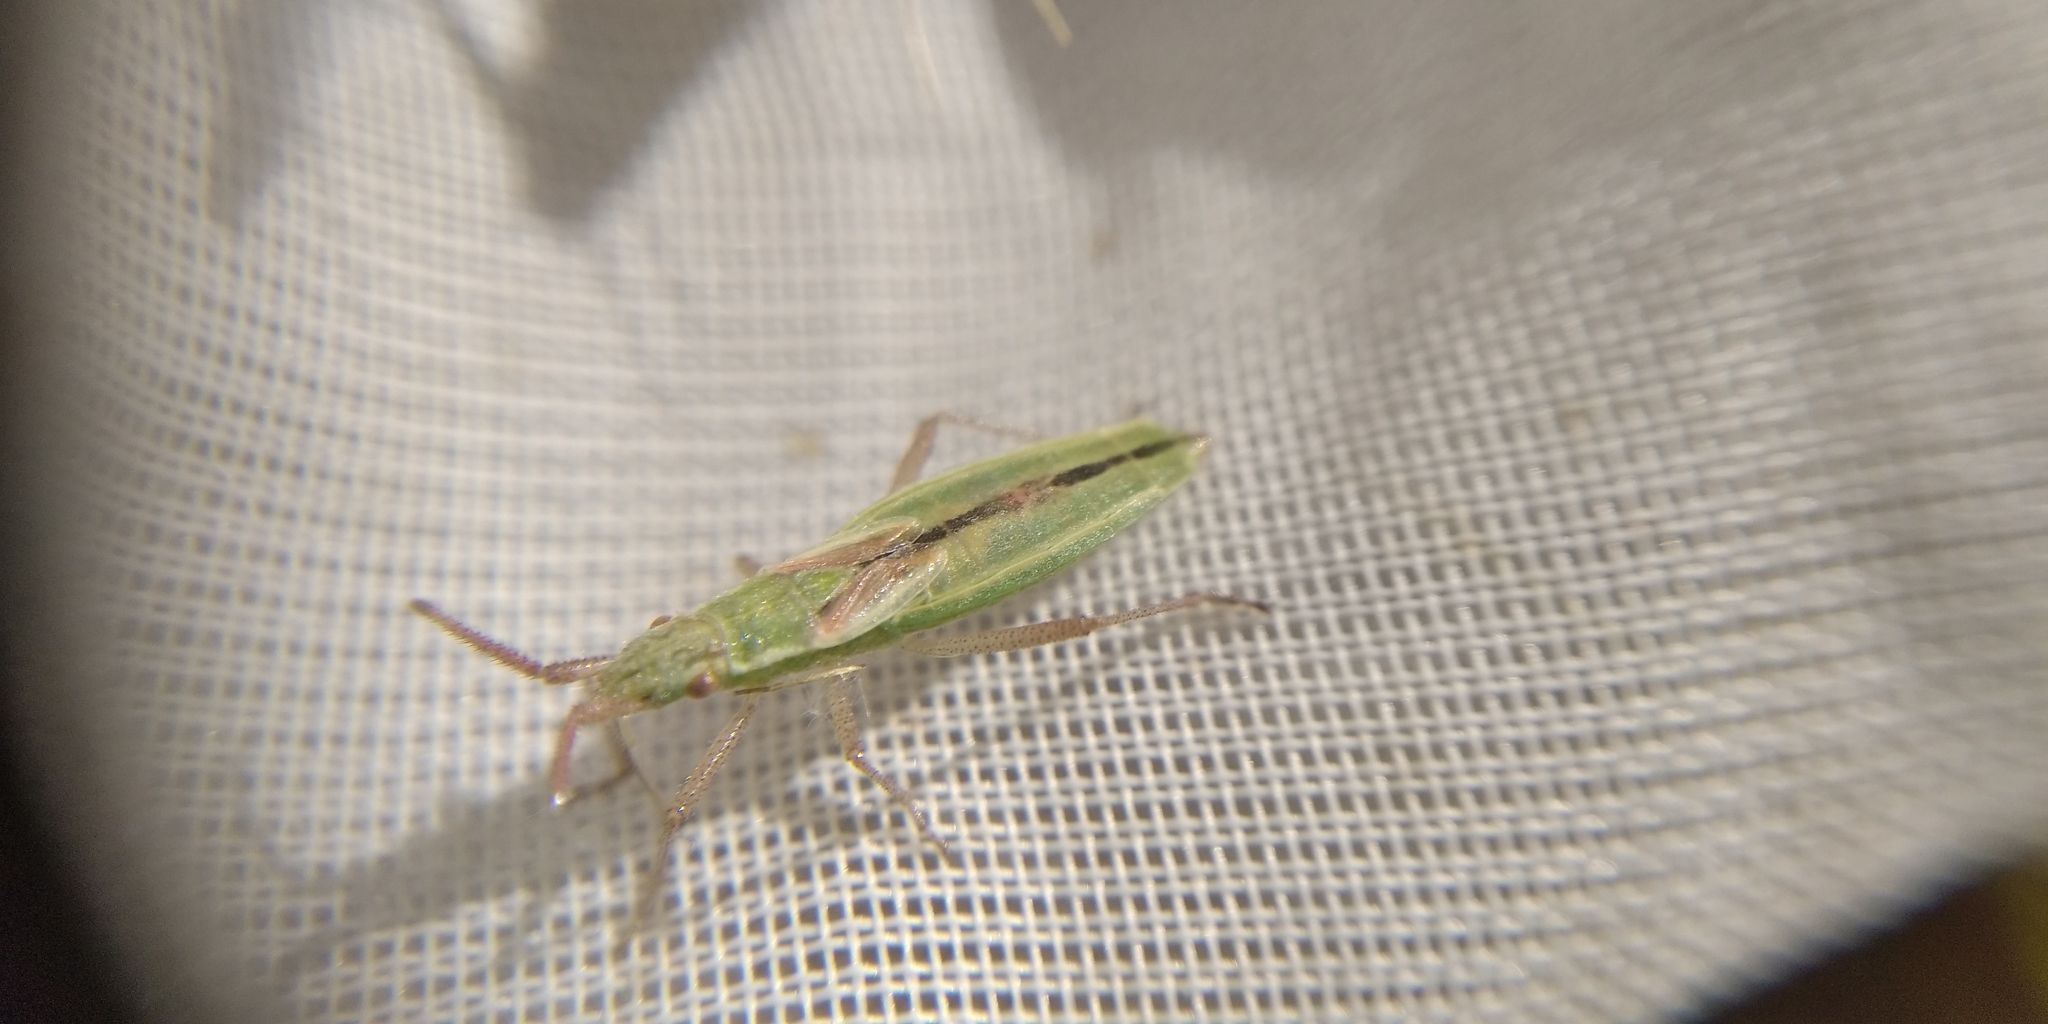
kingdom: Animalia
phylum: Arthropoda
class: Insecta
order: Hemiptera
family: Rhopalidae
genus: Myrmus
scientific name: Myrmus miriformis
